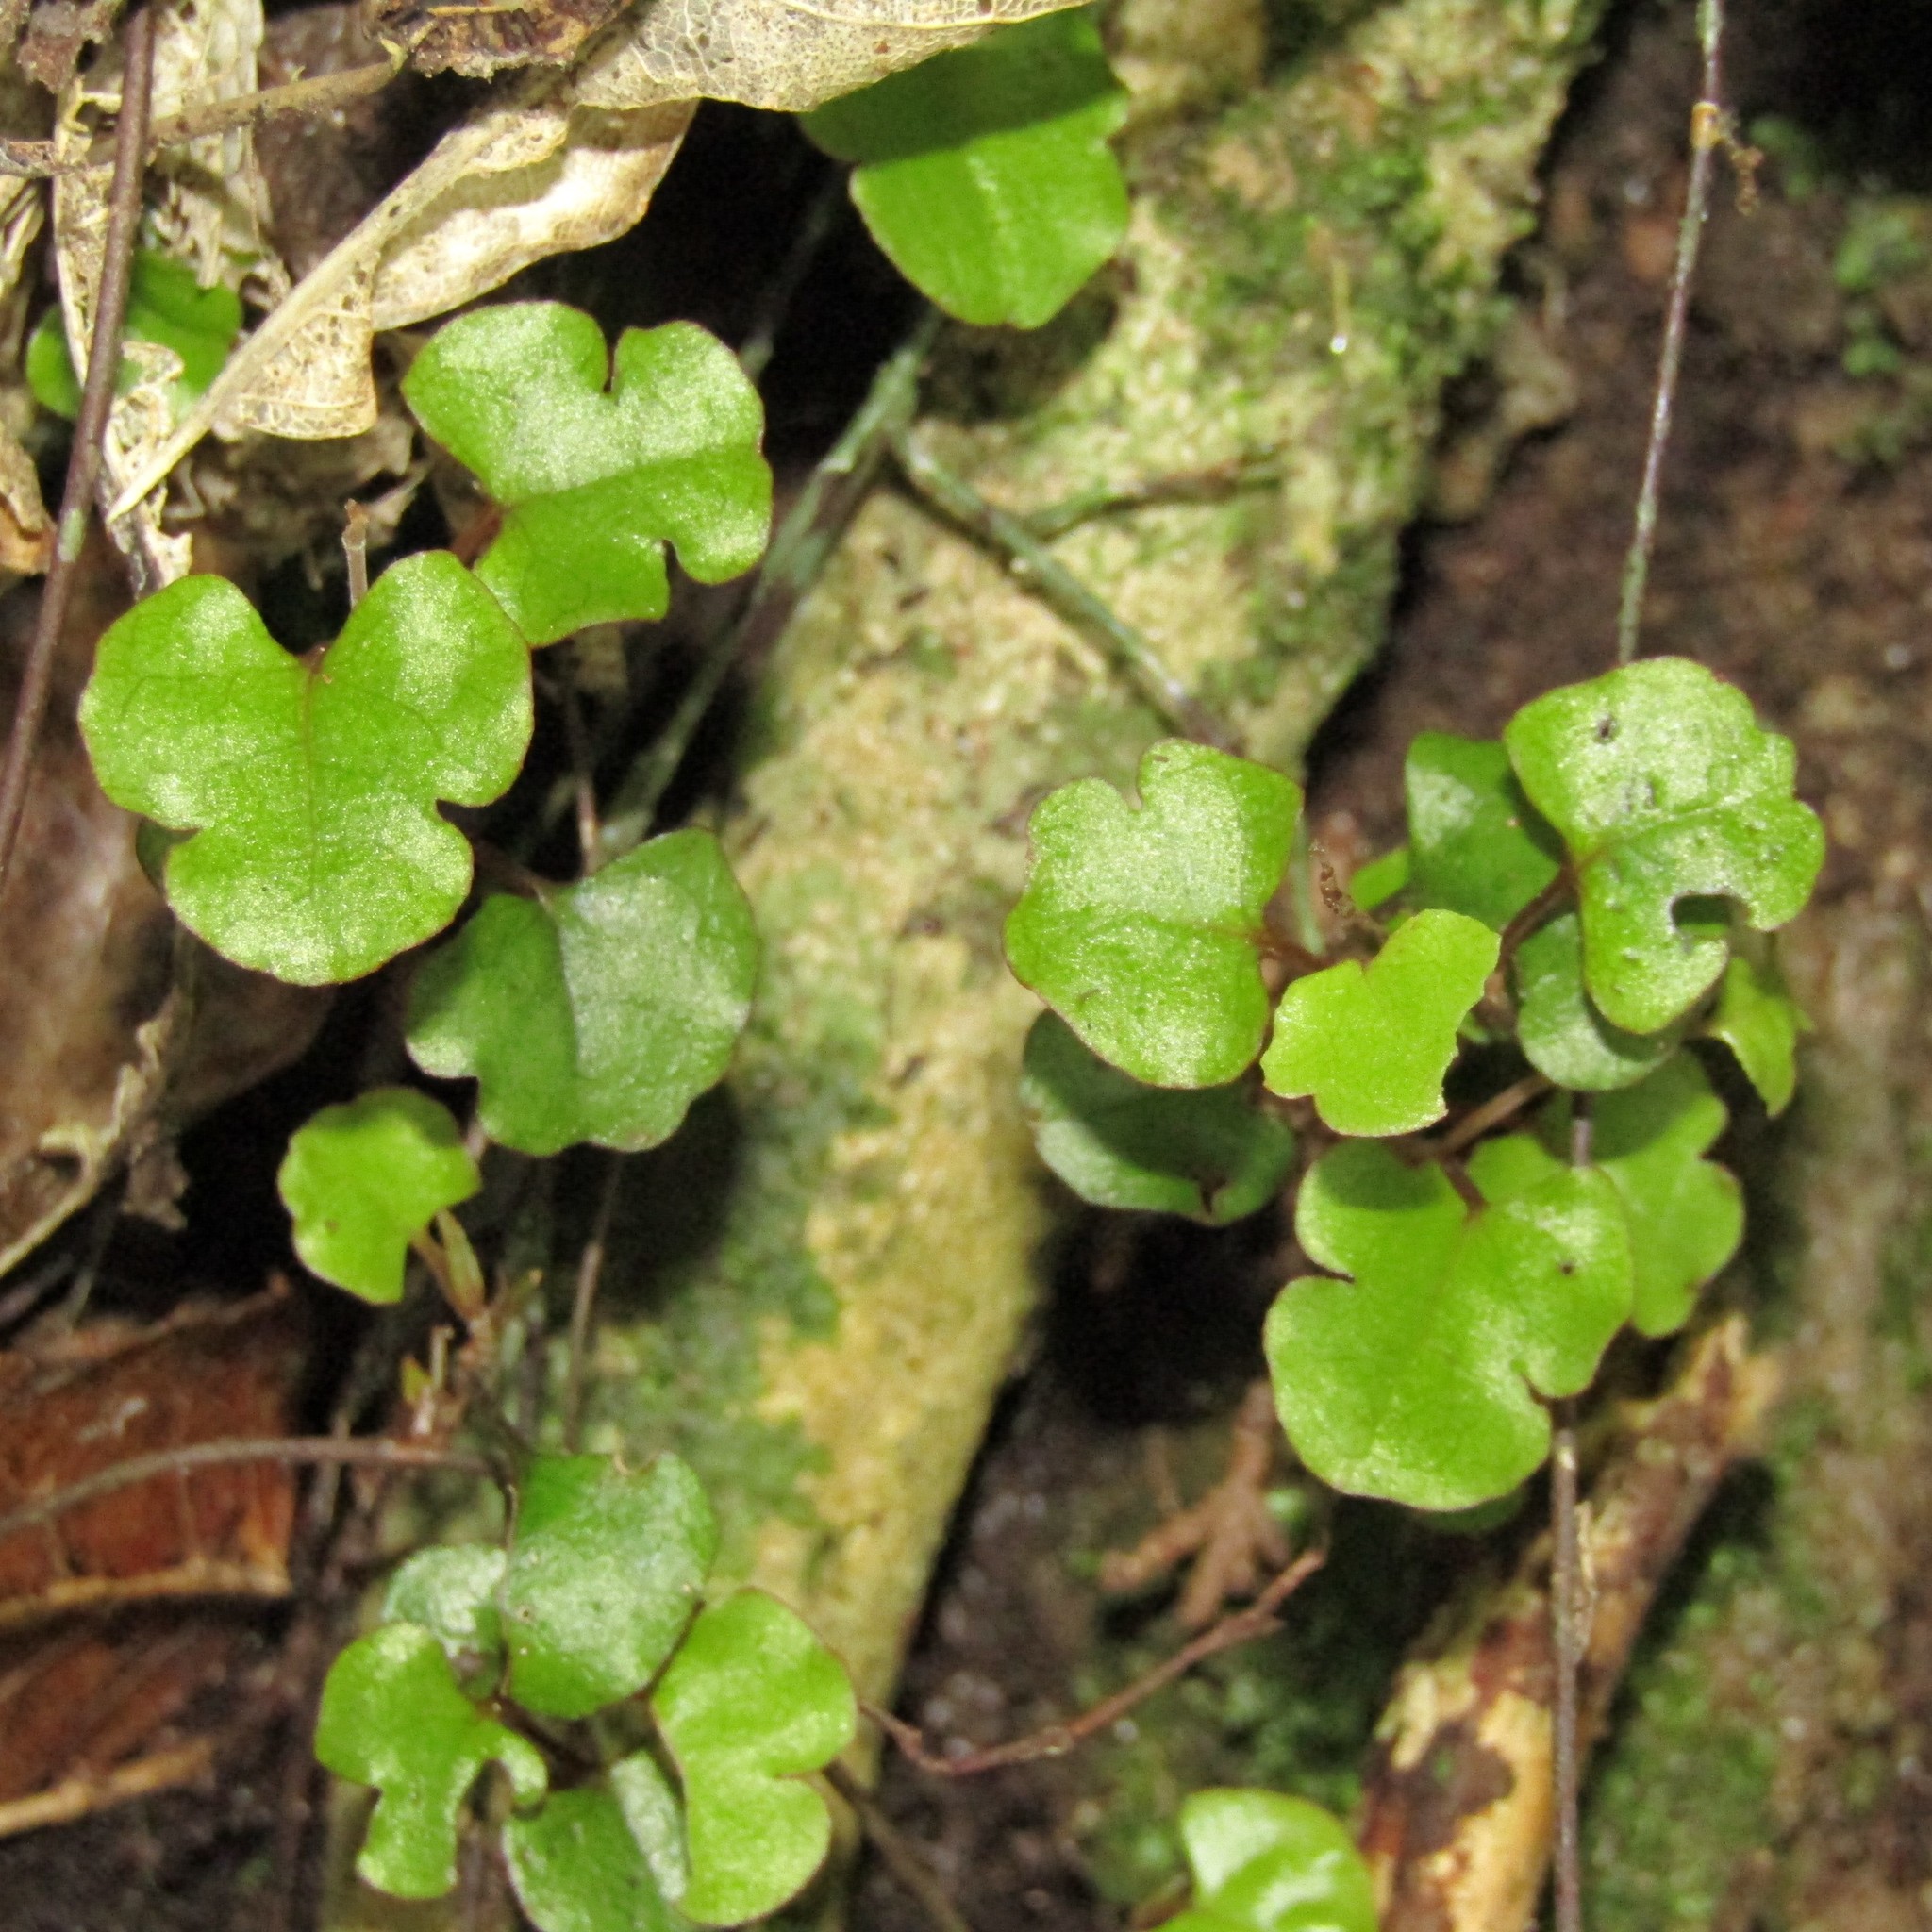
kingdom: Plantae
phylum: Tracheophyta
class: Magnoliopsida
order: Caryophyllales
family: Polygonaceae
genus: Muehlenbeckia
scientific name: Muehlenbeckia australis
